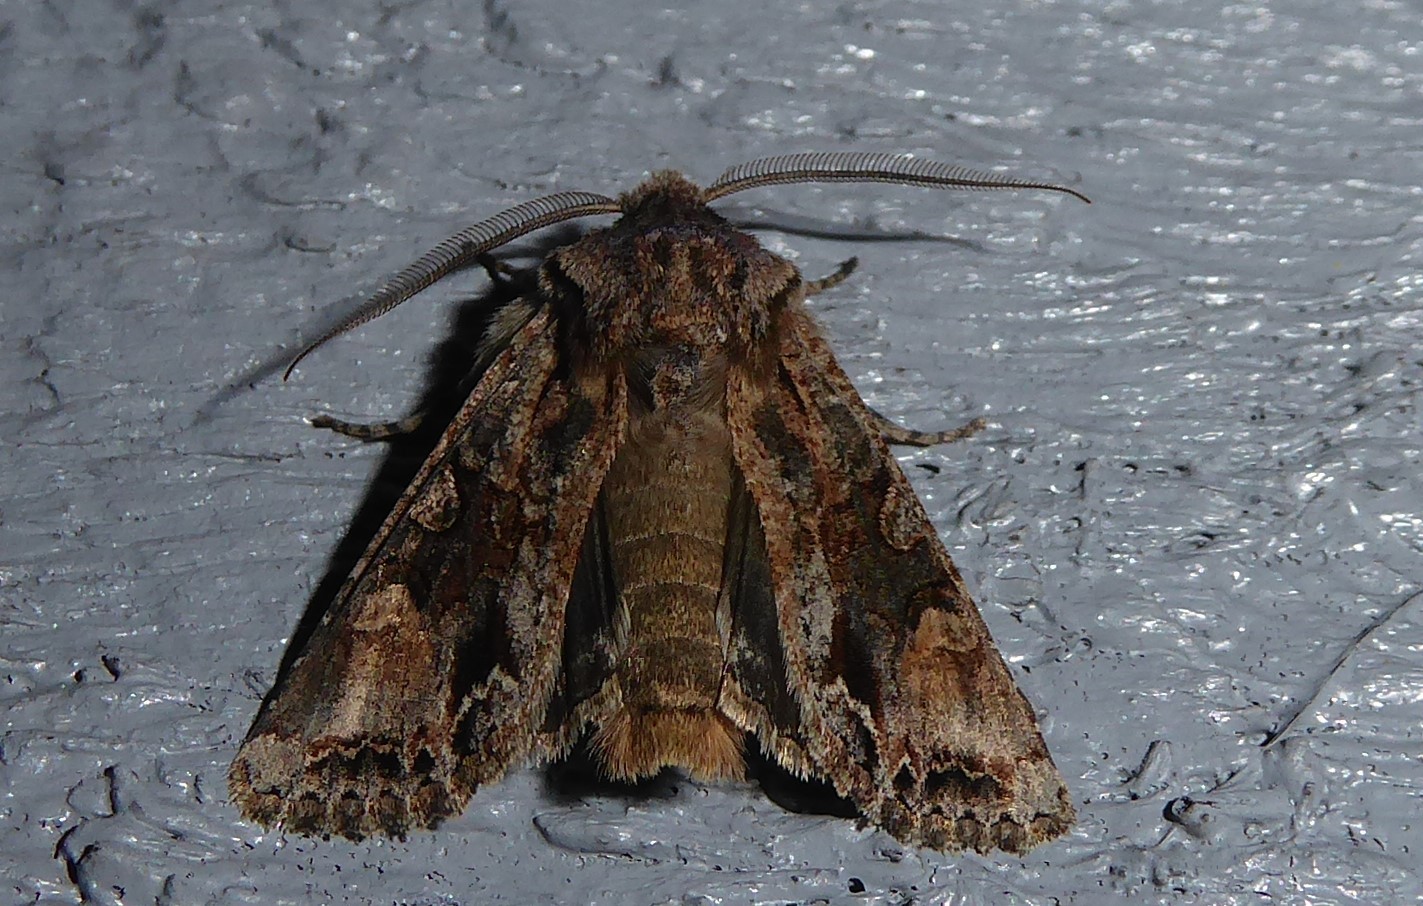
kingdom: Animalia
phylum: Arthropoda
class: Insecta
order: Lepidoptera
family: Noctuidae
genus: Ichneutica
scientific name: Ichneutica skelloni
